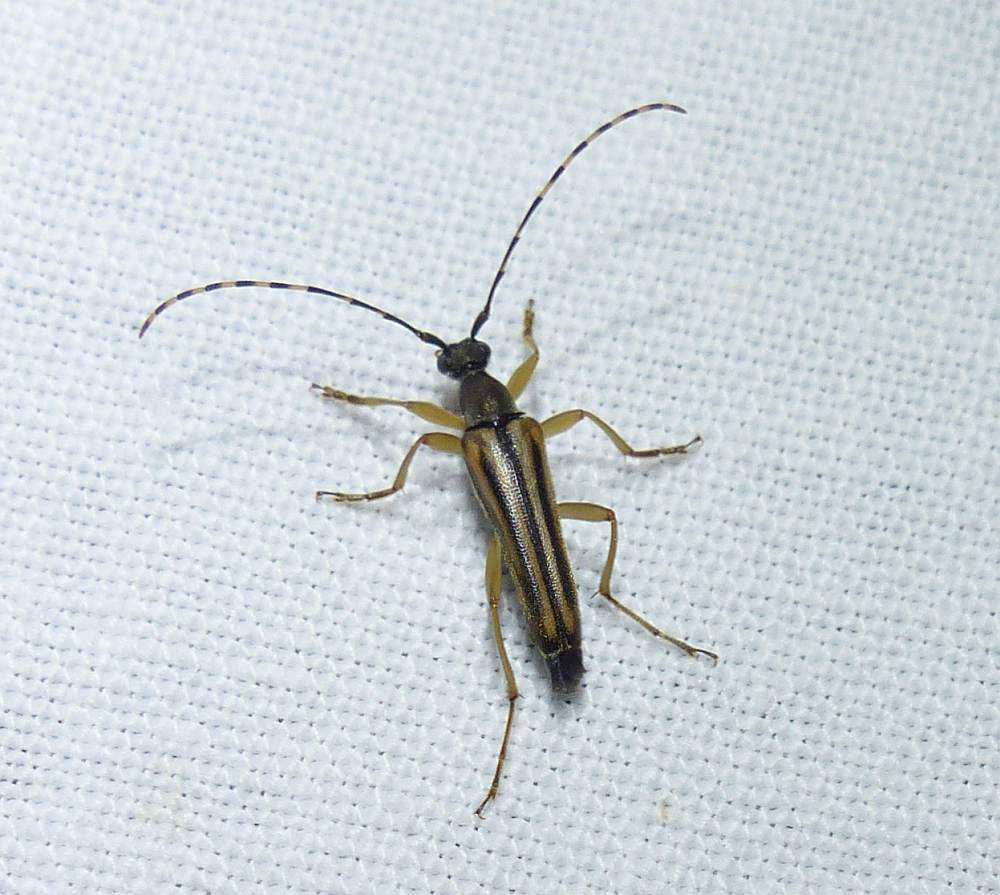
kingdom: Animalia
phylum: Arthropoda
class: Insecta
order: Coleoptera
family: Cerambycidae
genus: Analeptura
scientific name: Analeptura lineola
